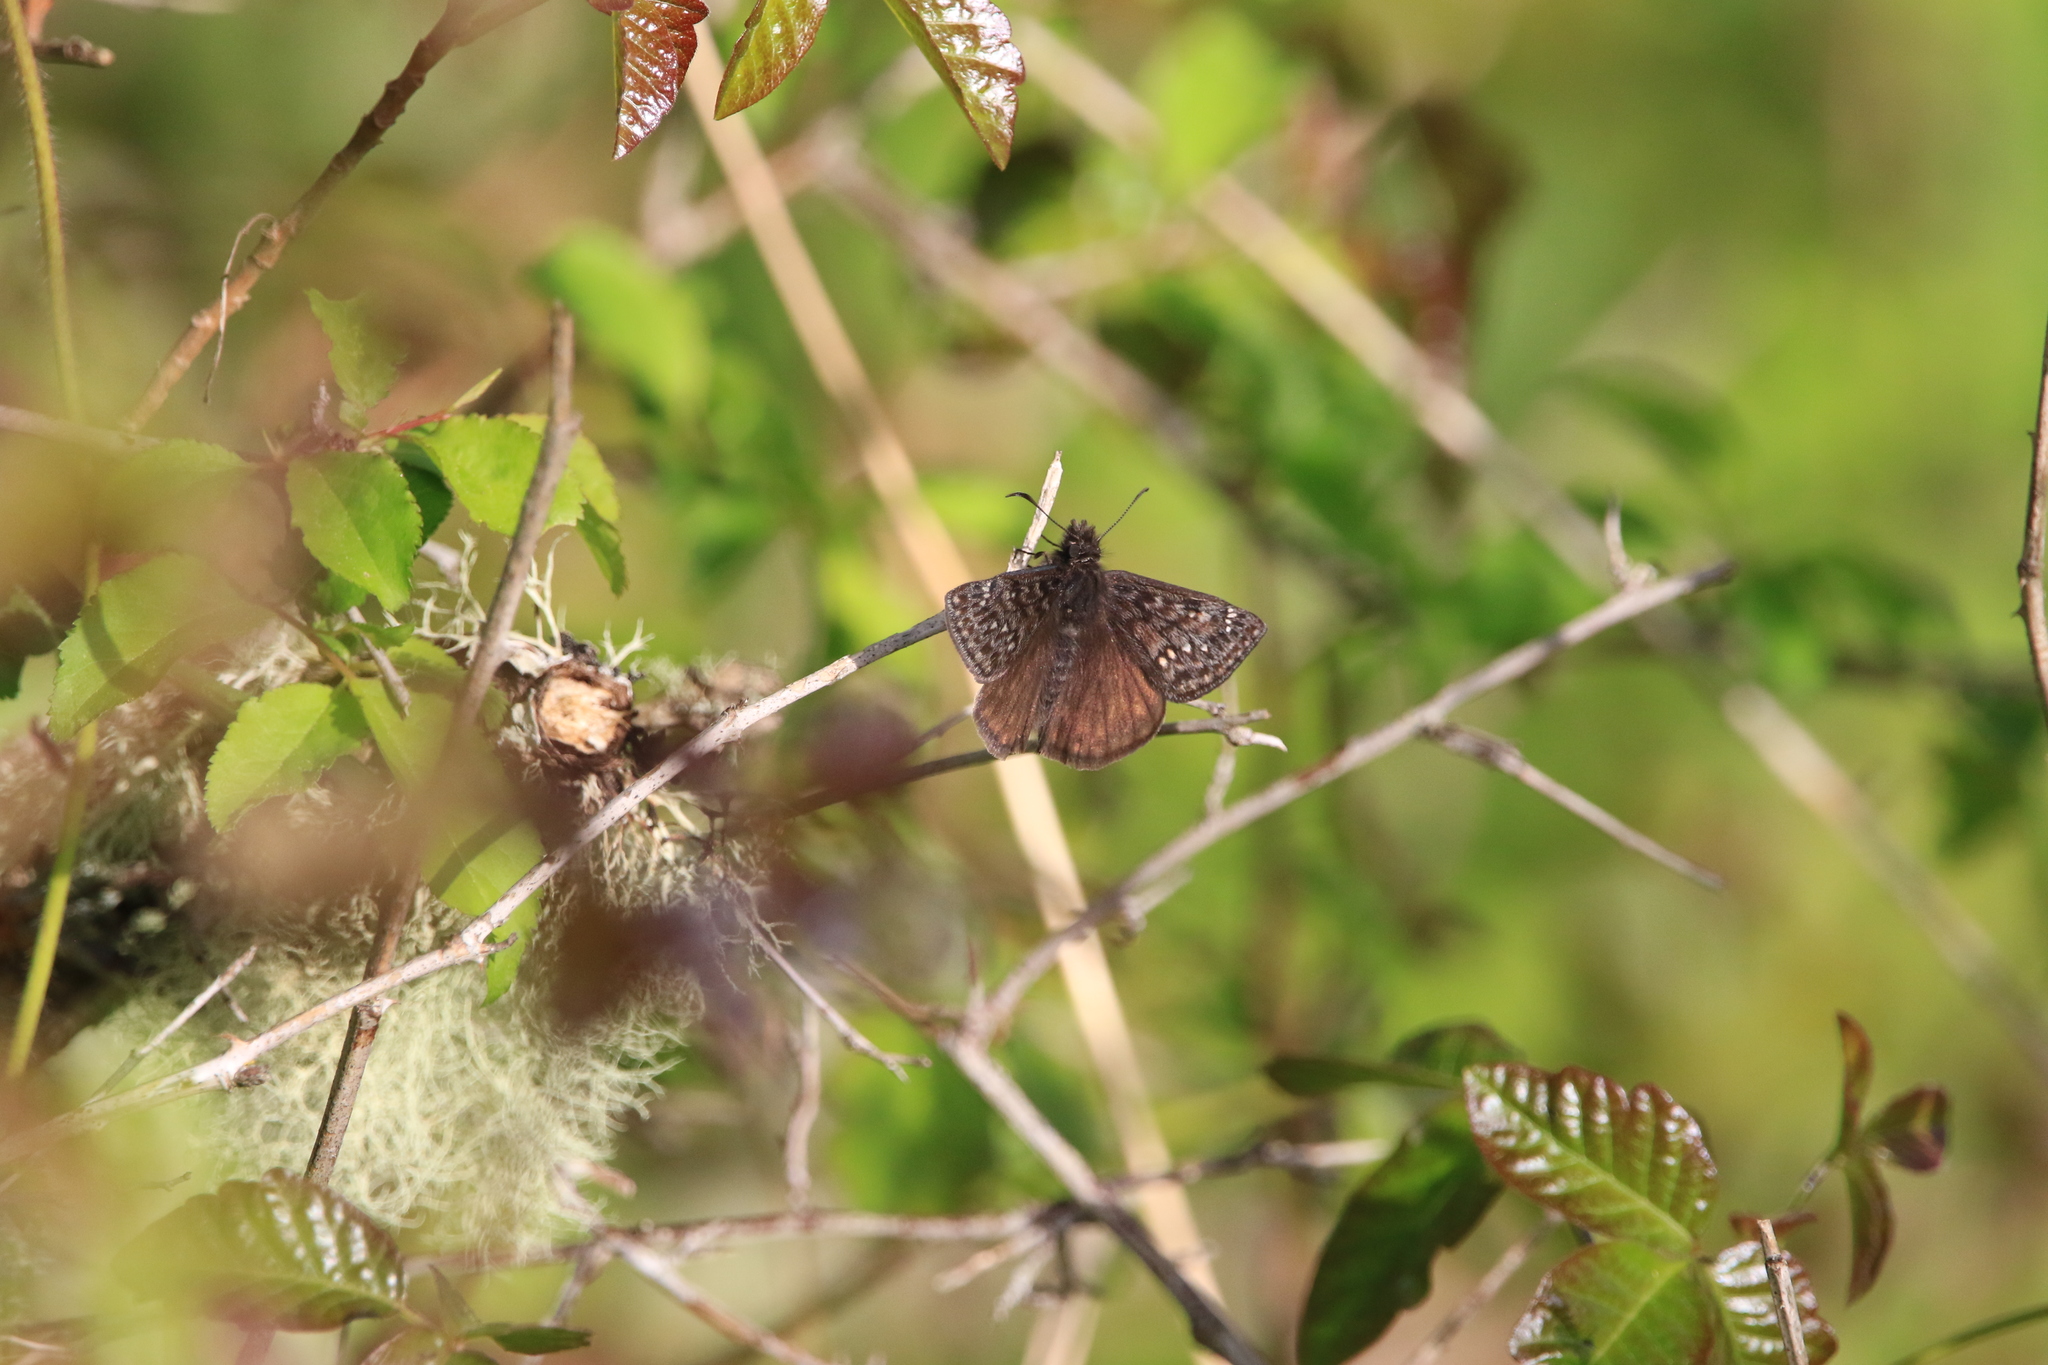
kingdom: Animalia
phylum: Arthropoda
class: Insecta
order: Lepidoptera
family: Hesperiidae
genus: Erynnis
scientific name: Erynnis propertius
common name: Propertius duskywing
